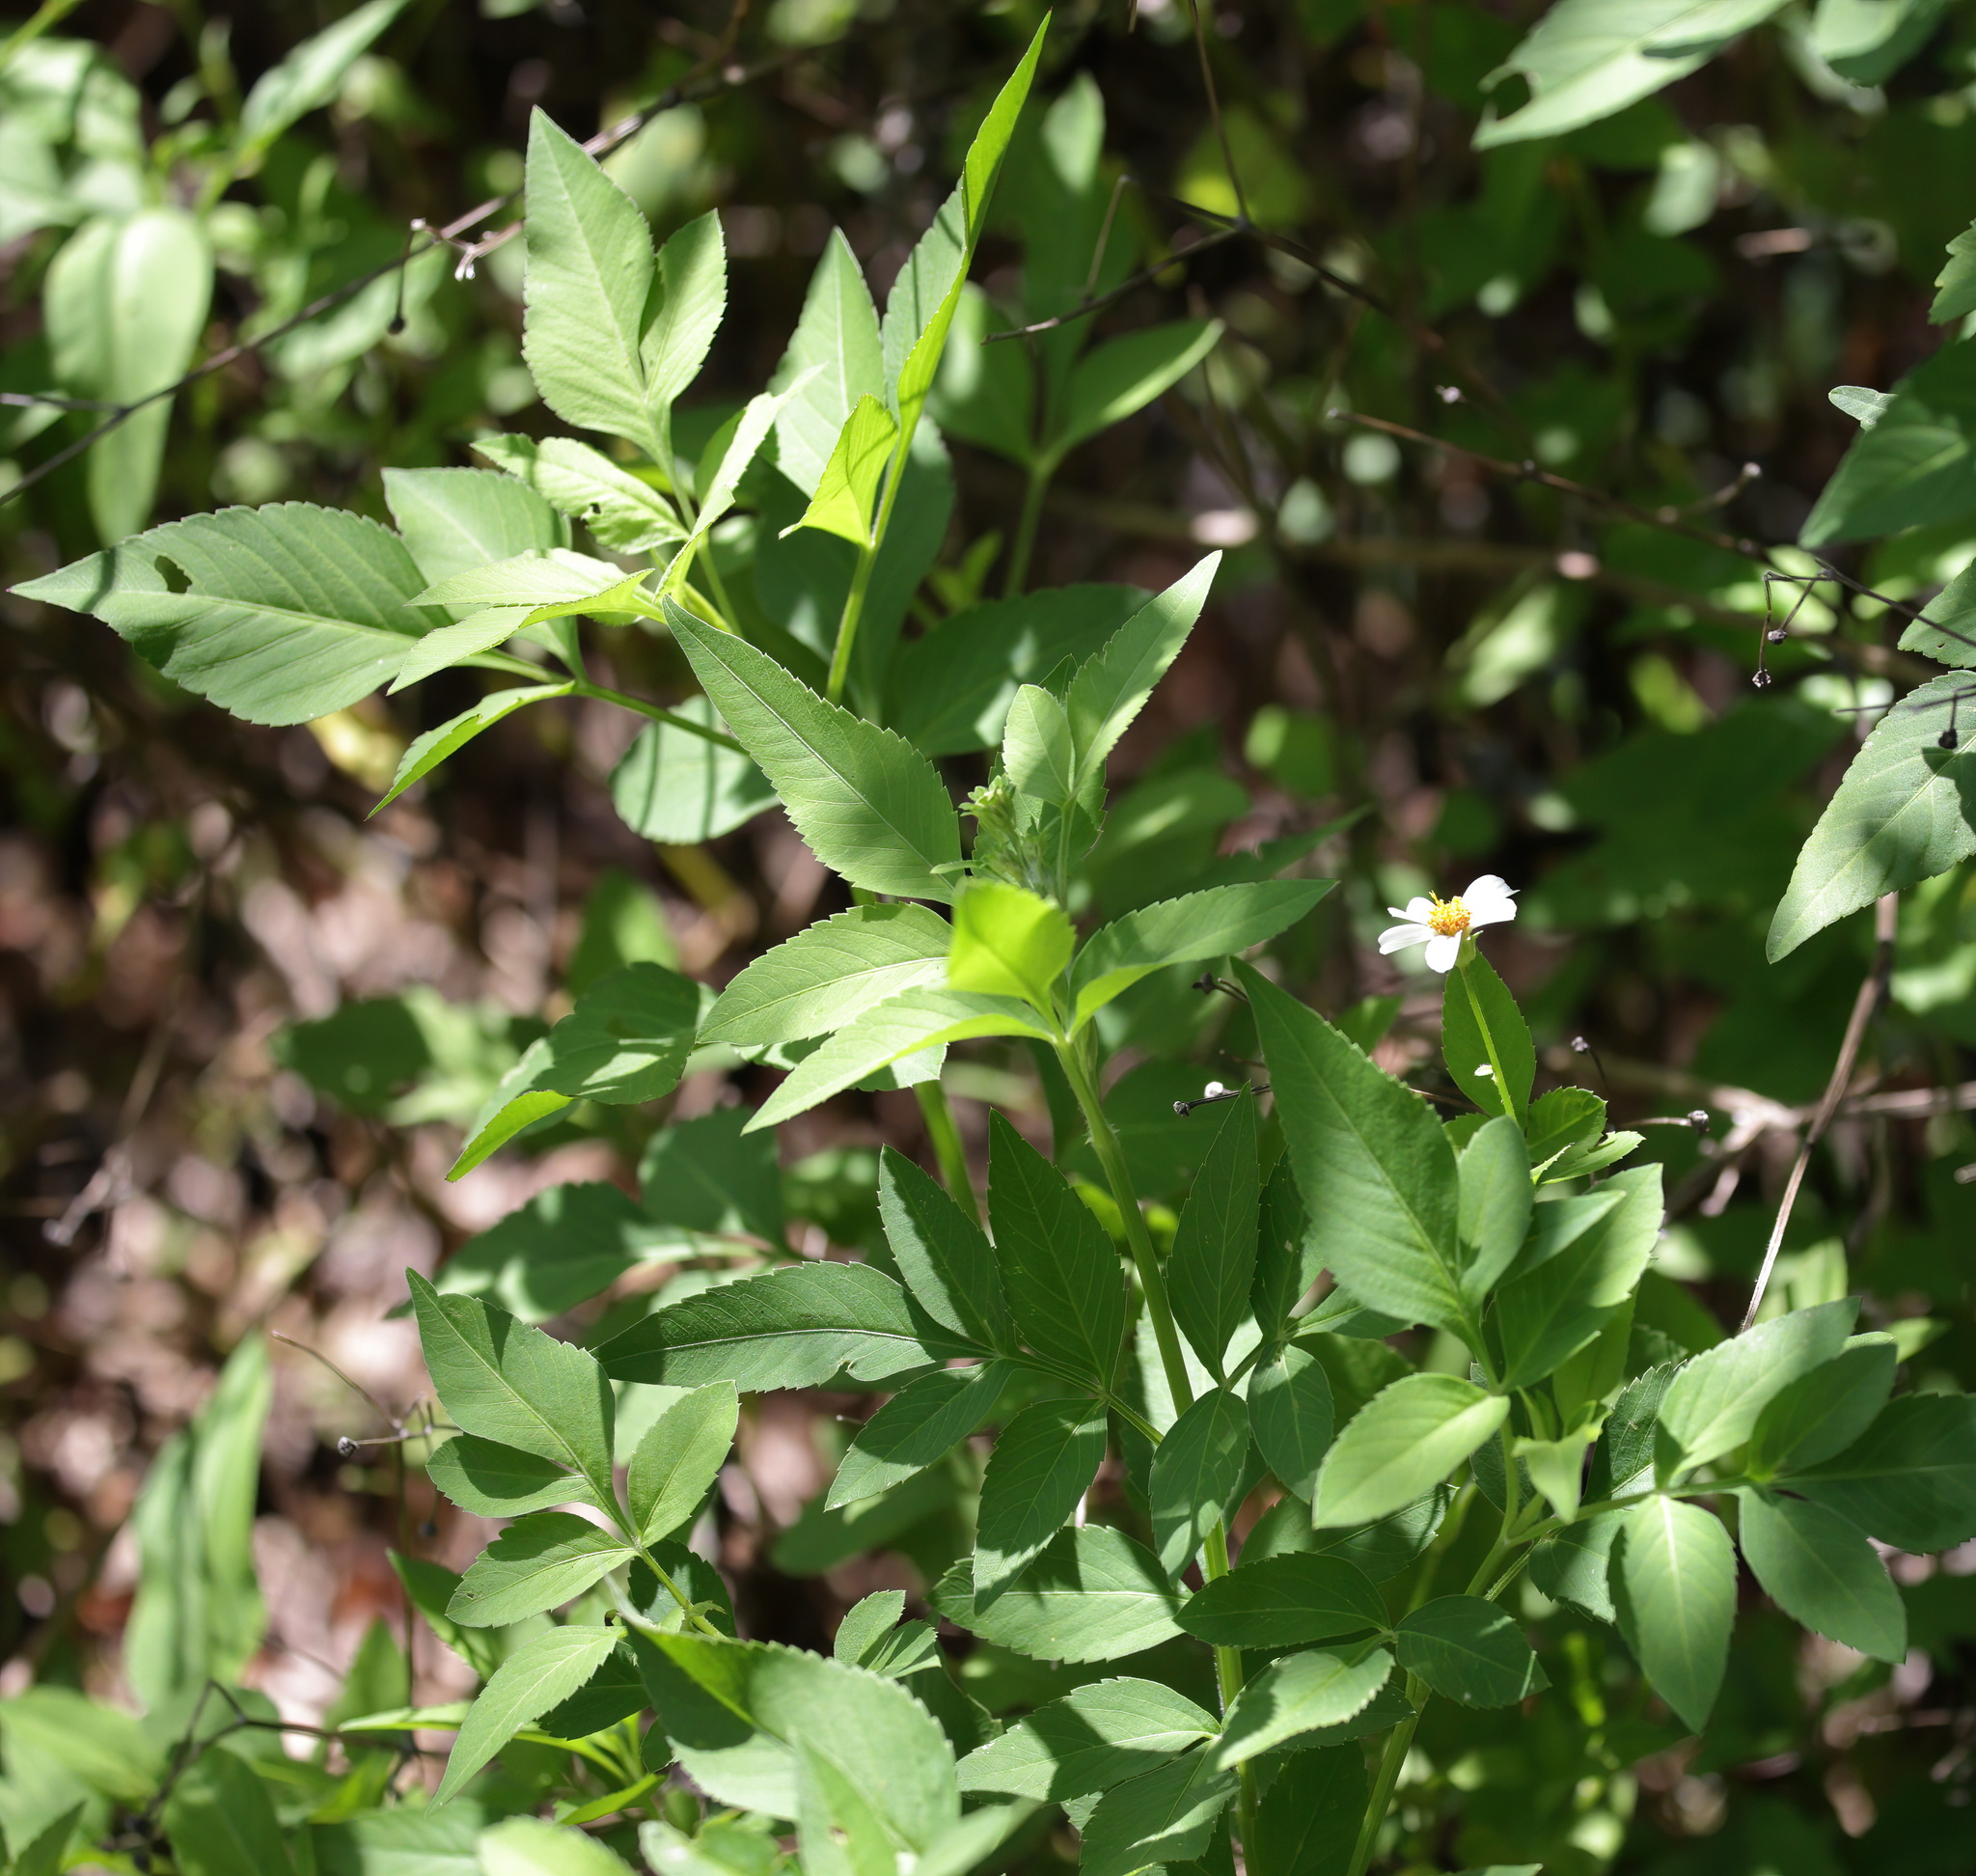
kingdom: Plantae
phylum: Tracheophyta
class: Magnoliopsida
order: Asterales
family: Asteraceae
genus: Bidens
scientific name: Bidens alba
